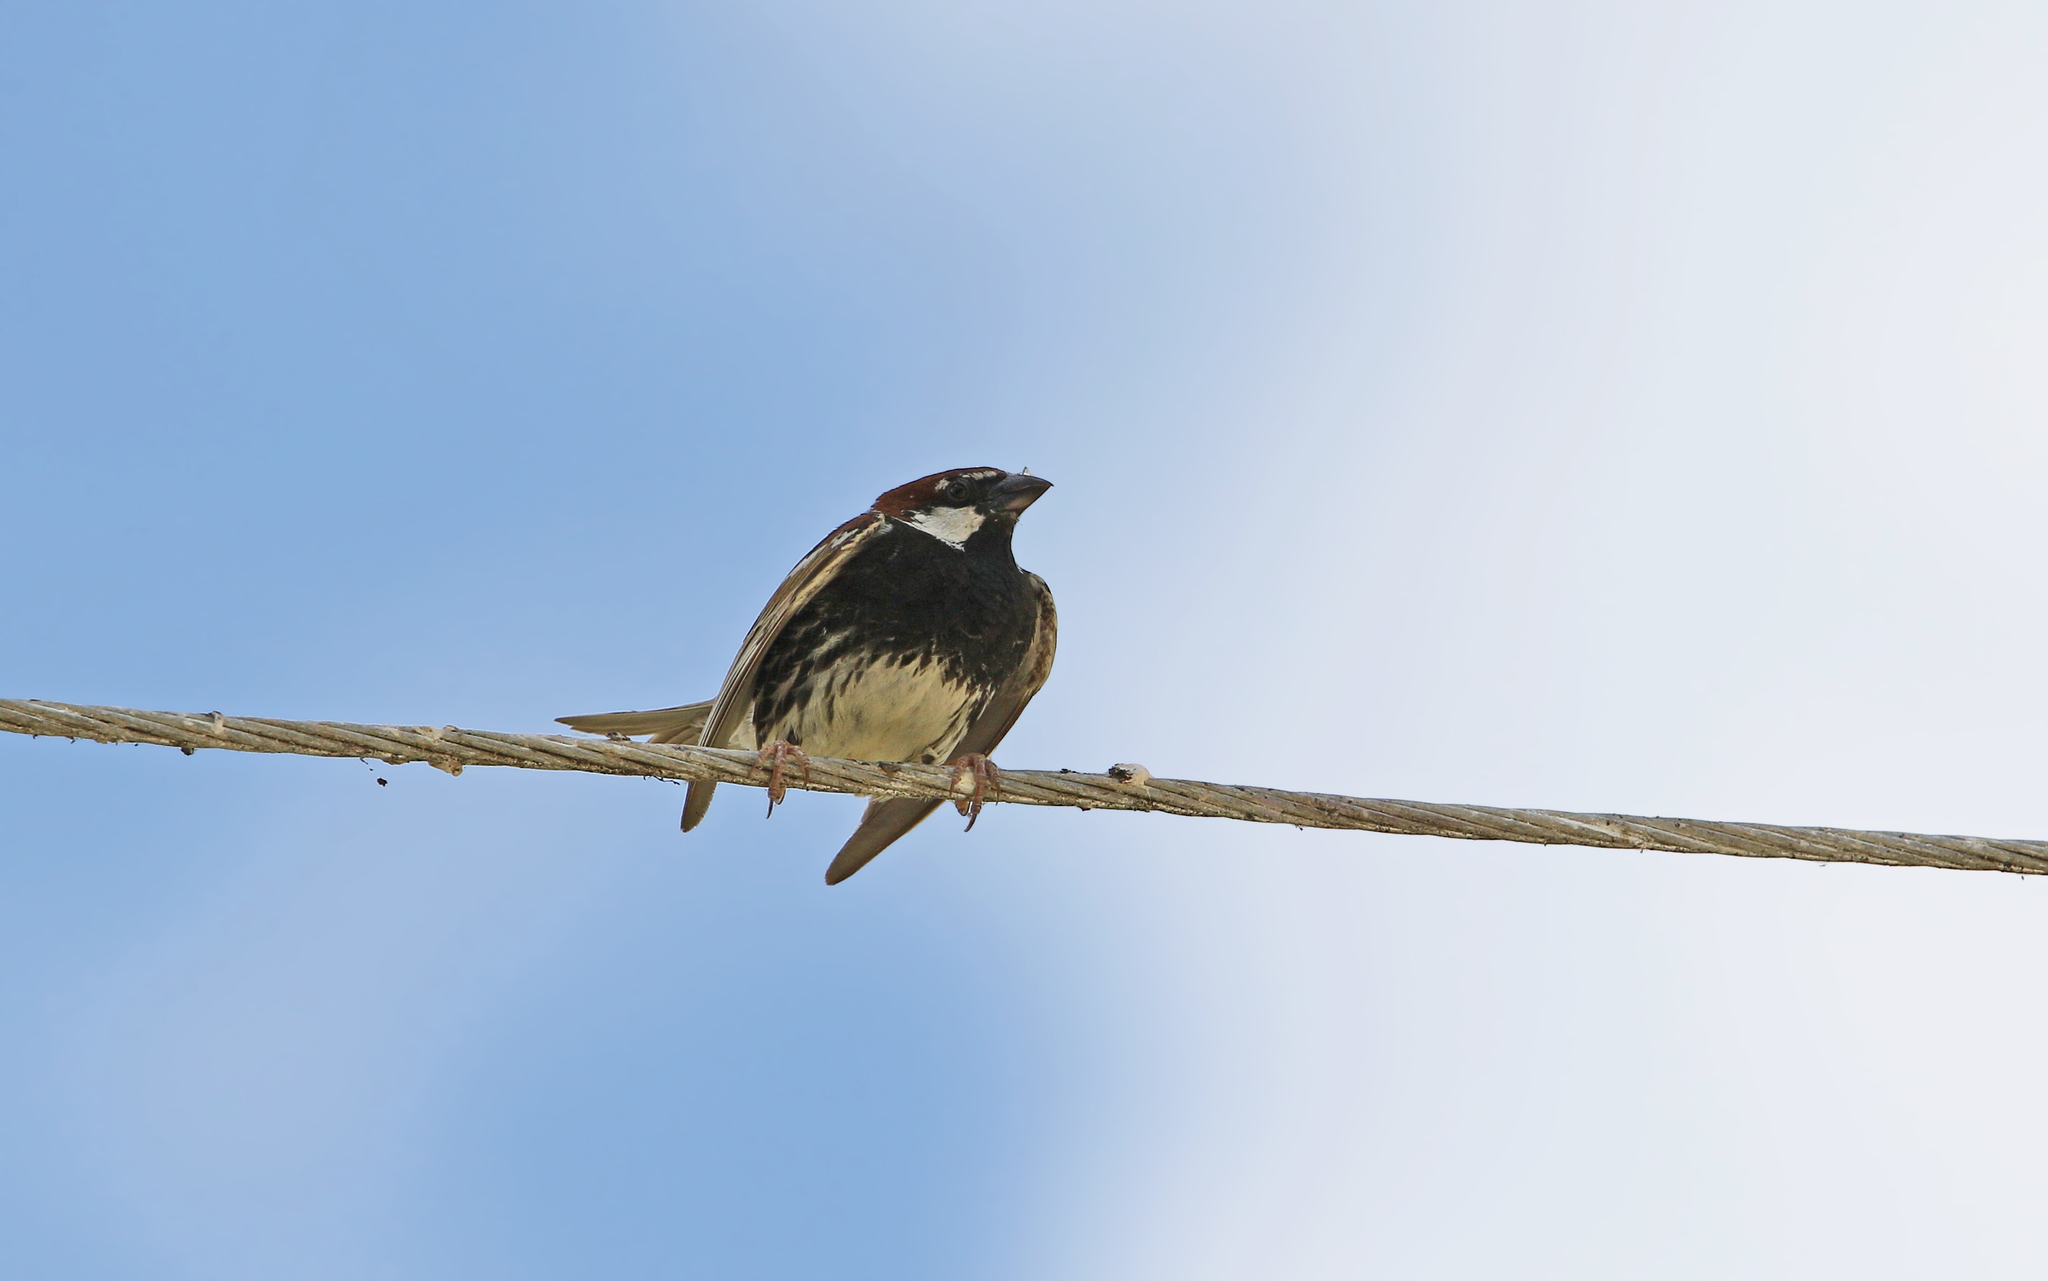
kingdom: Animalia
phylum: Chordata
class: Aves
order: Passeriformes
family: Passeridae
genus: Passer
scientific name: Passer hispaniolensis
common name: Spanish sparrow
